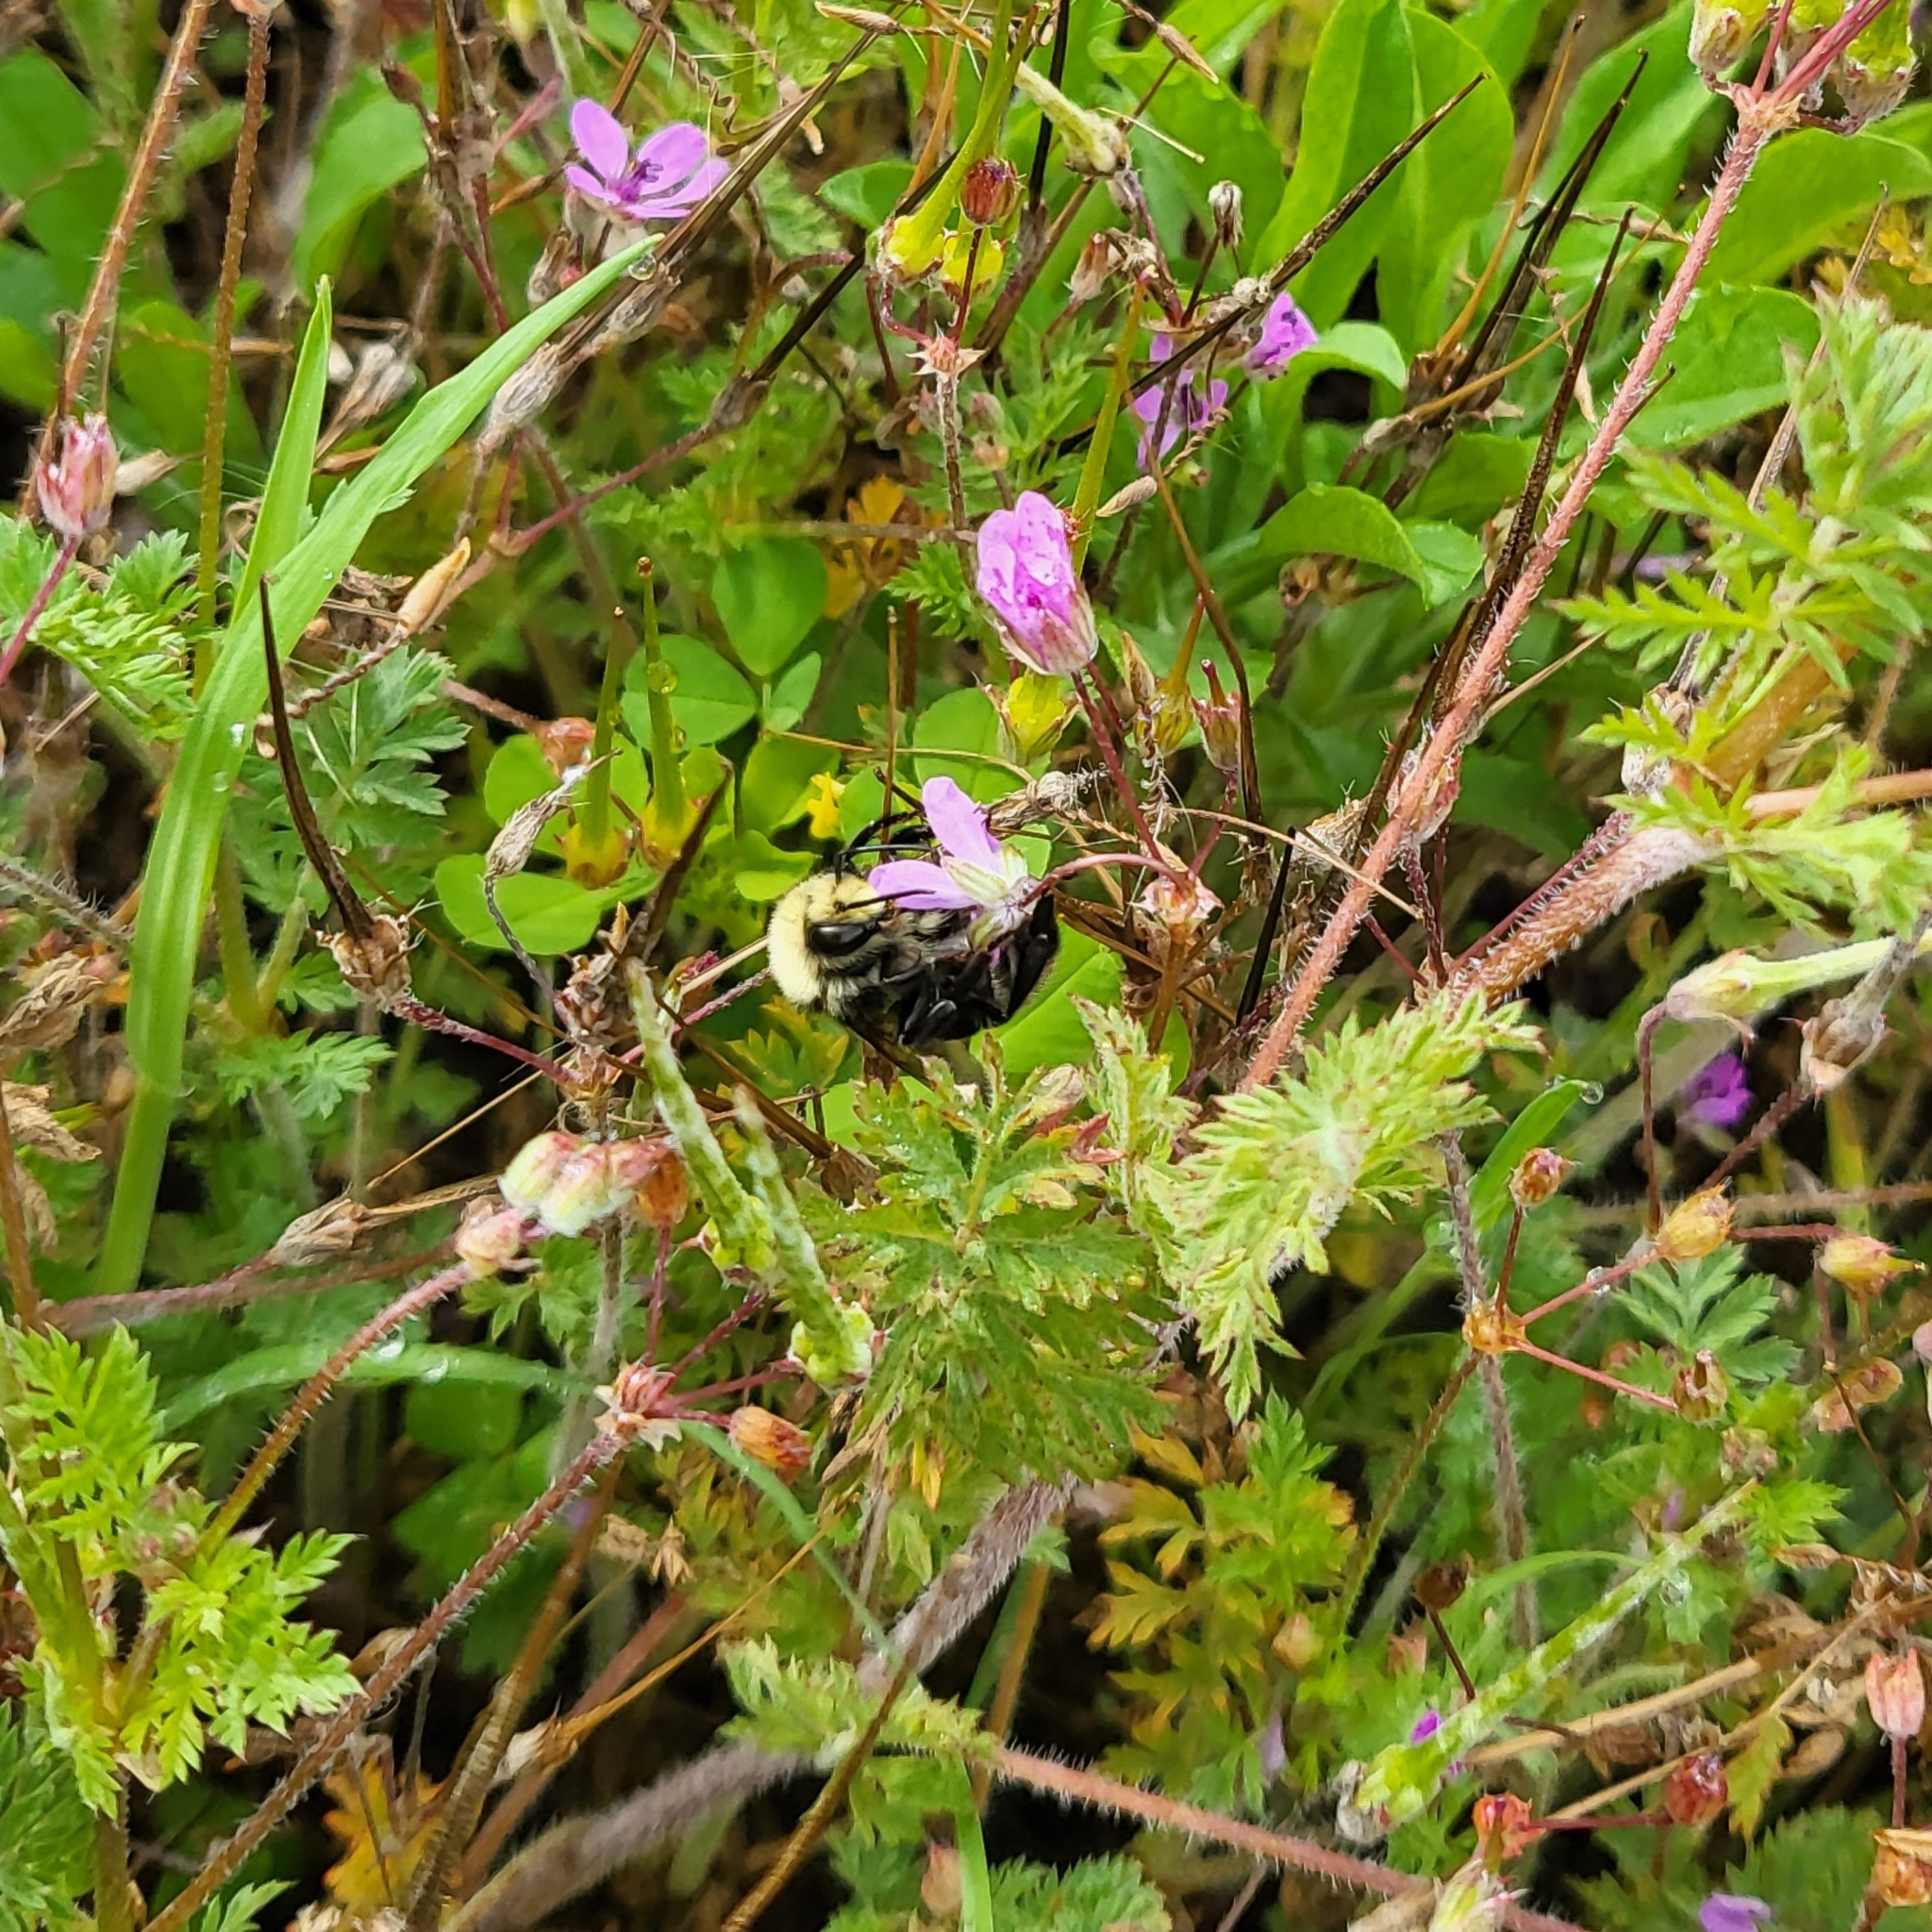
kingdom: Animalia
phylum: Arthropoda
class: Insecta
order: Hymenoptera
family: Apidae
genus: Bombus
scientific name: Bombus vosnesenskii
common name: Vosnesensky bumble bee
